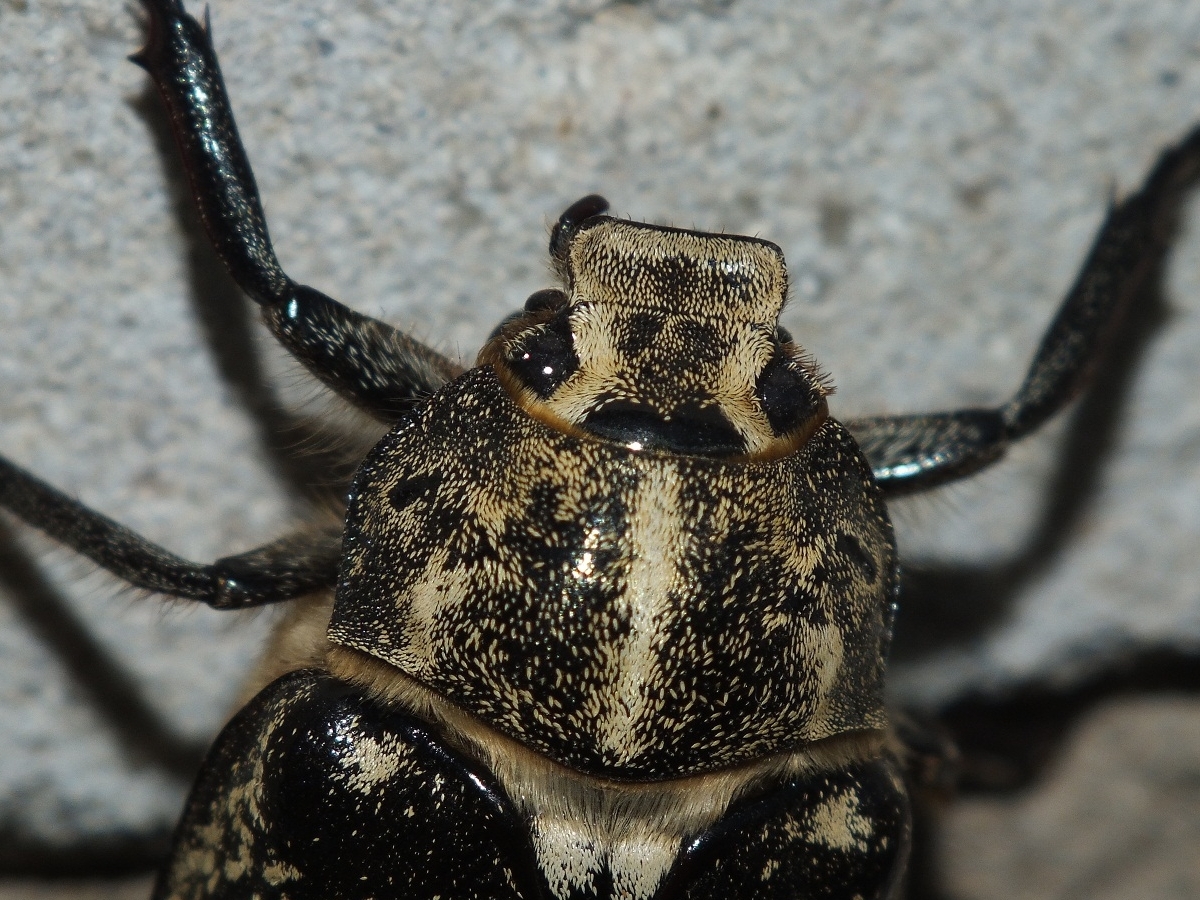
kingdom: Animalia
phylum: Arthropoda
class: Insecta
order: Coleoptera
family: Scarabaeidae
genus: Polyphylla
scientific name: Polyphylla fullo
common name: Pine chafer
